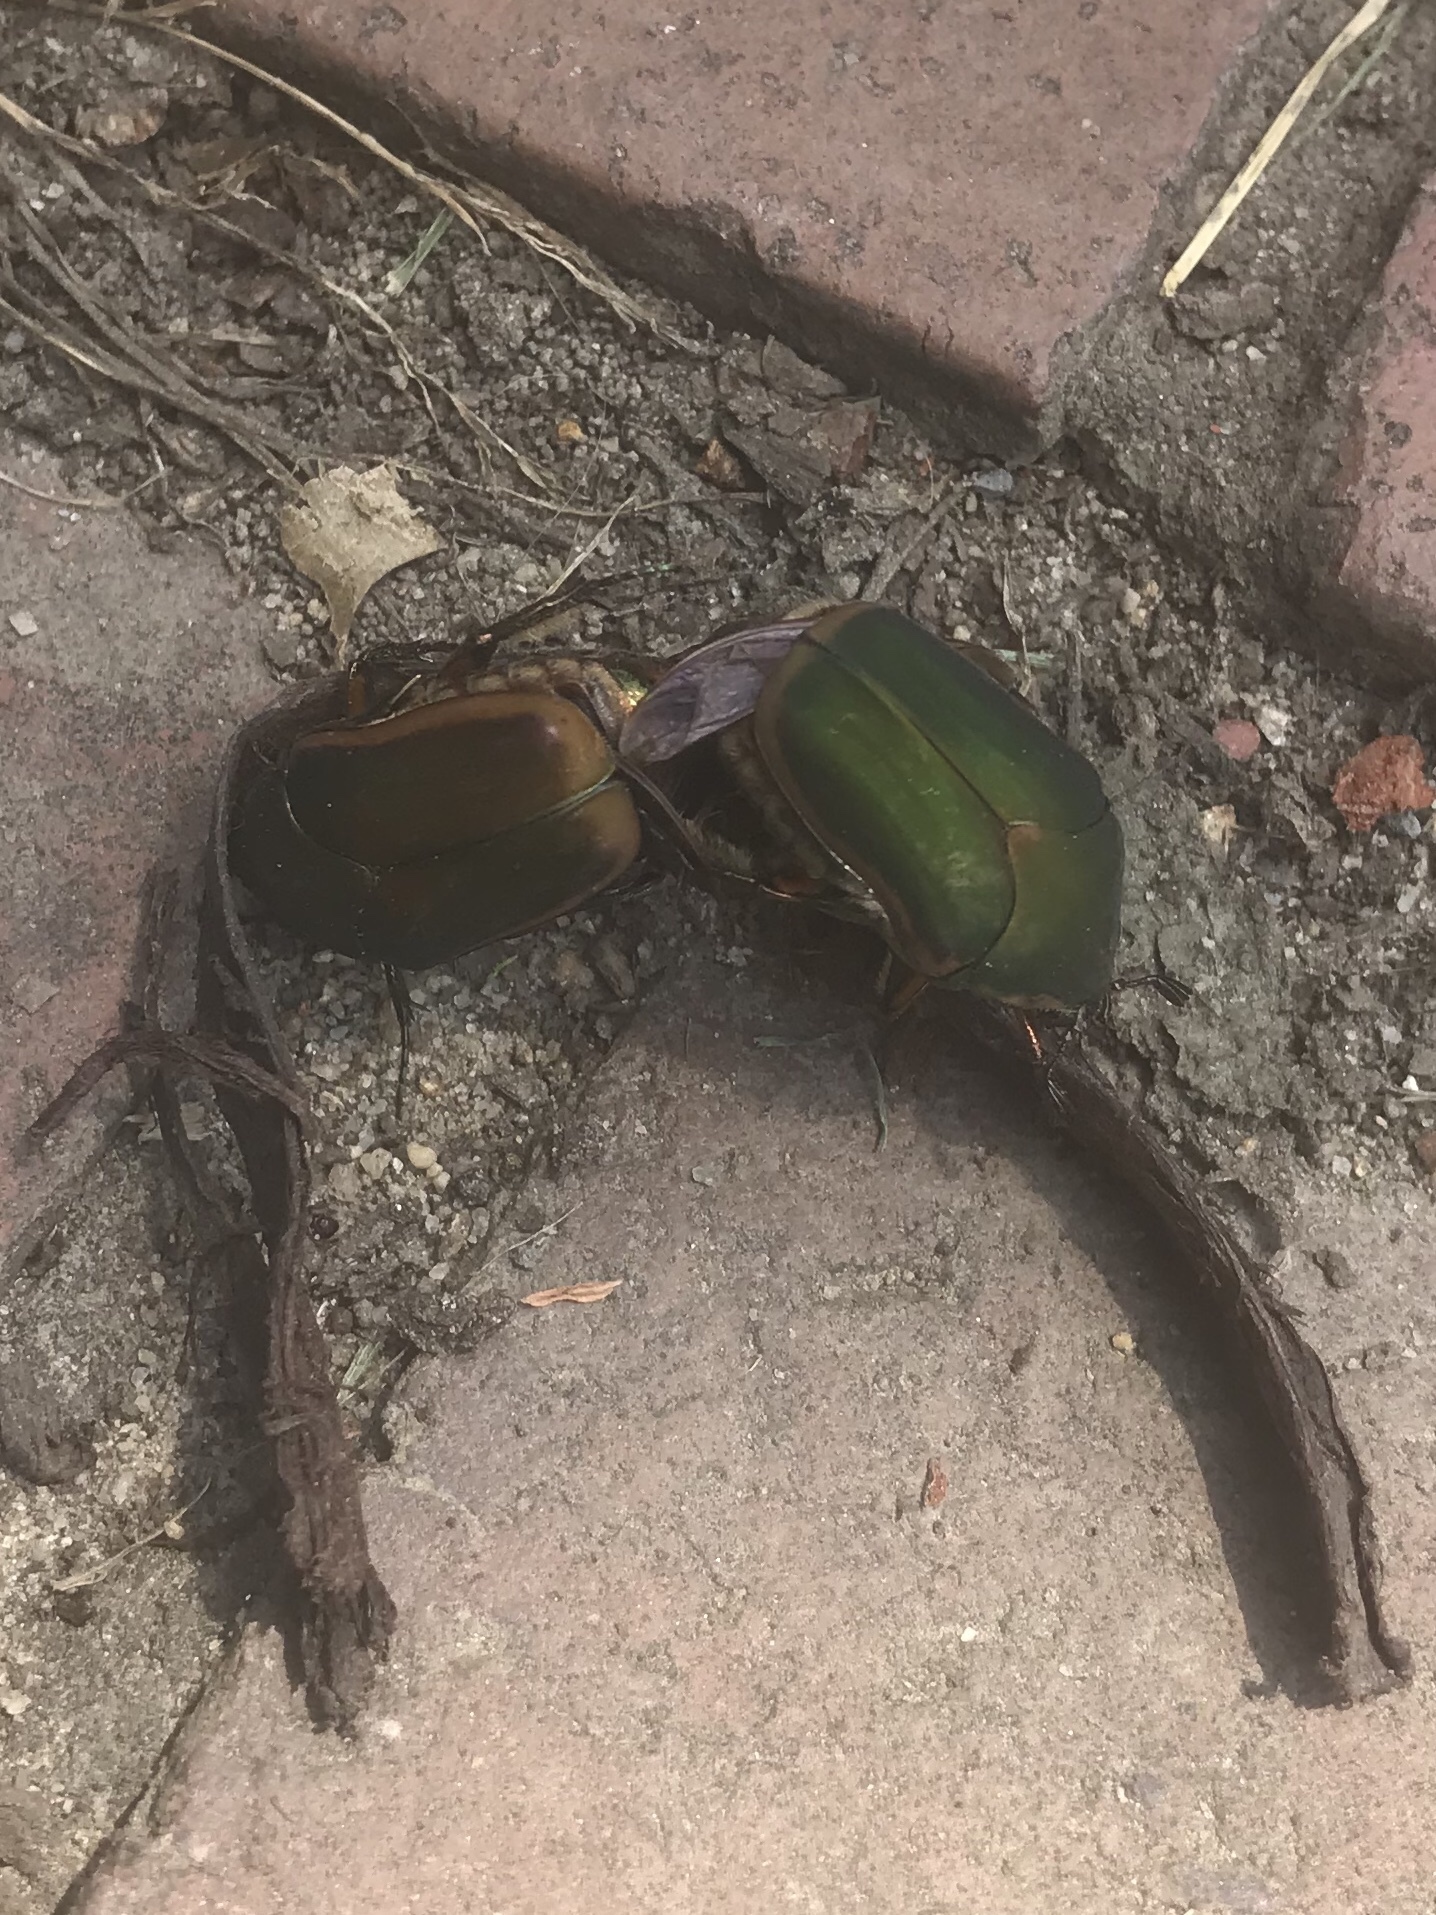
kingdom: Animalia
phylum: Arthropoda
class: Insecta
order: Coleoptera
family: Scarabaeidae
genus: Cotinis
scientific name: Cotinis nitida
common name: Common green june beetle
